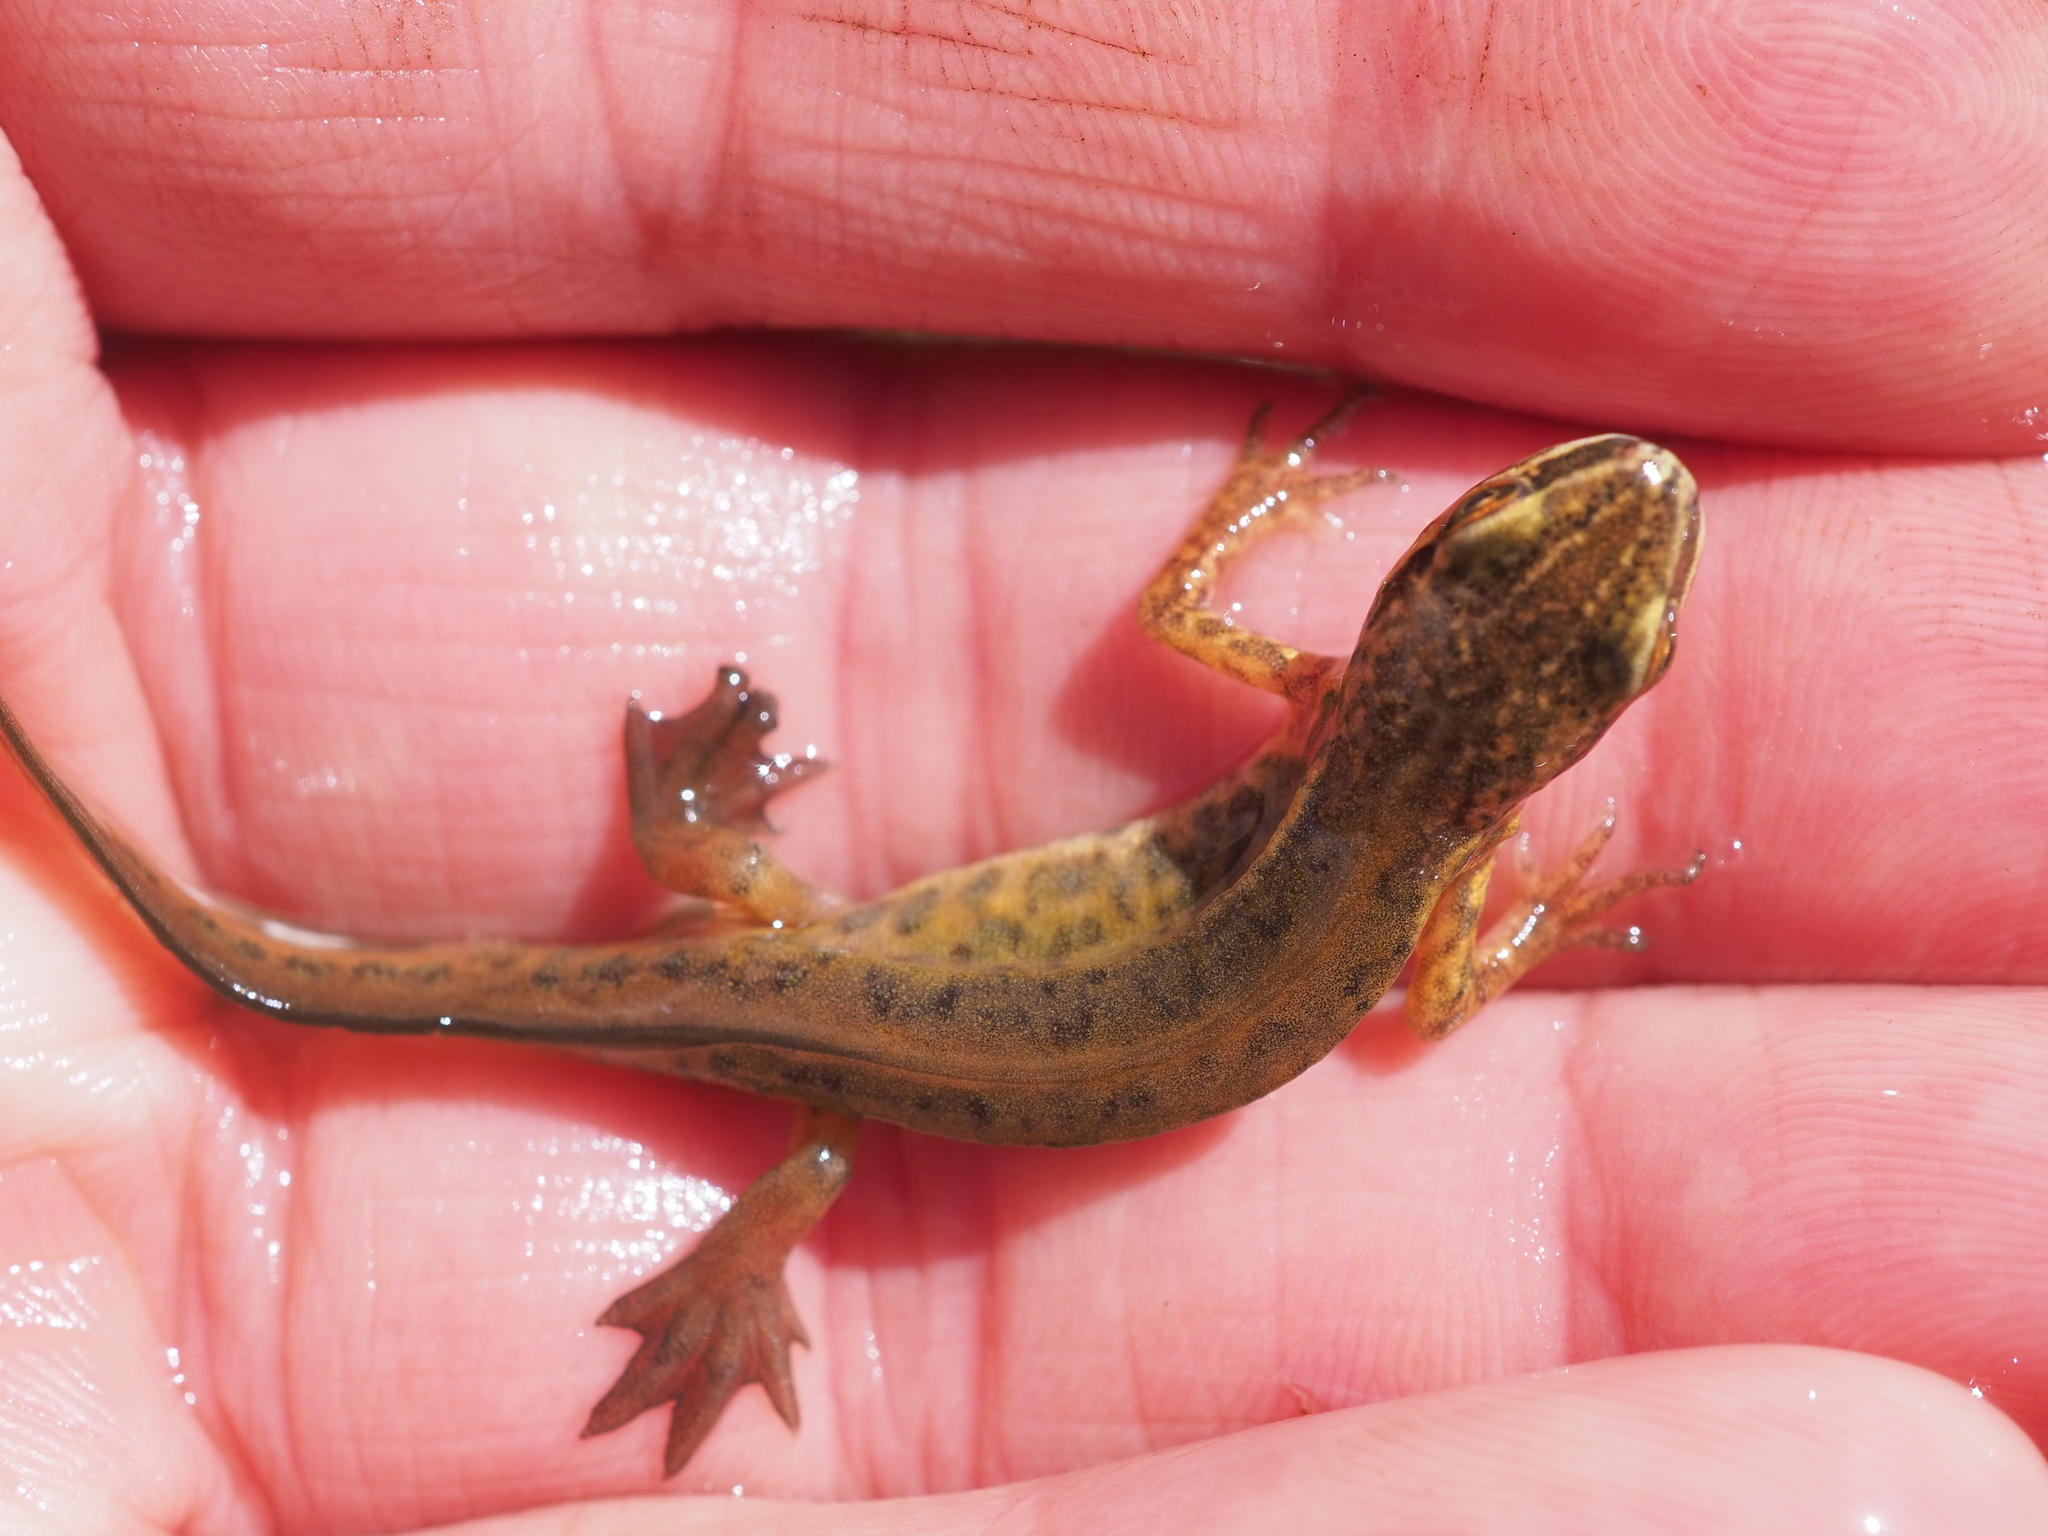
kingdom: Animalia
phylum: Chordata
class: Amphibia
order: Caudata
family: Salamandridae
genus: Lissotriton
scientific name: Lissotriton helveticus
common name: Palmate newt
